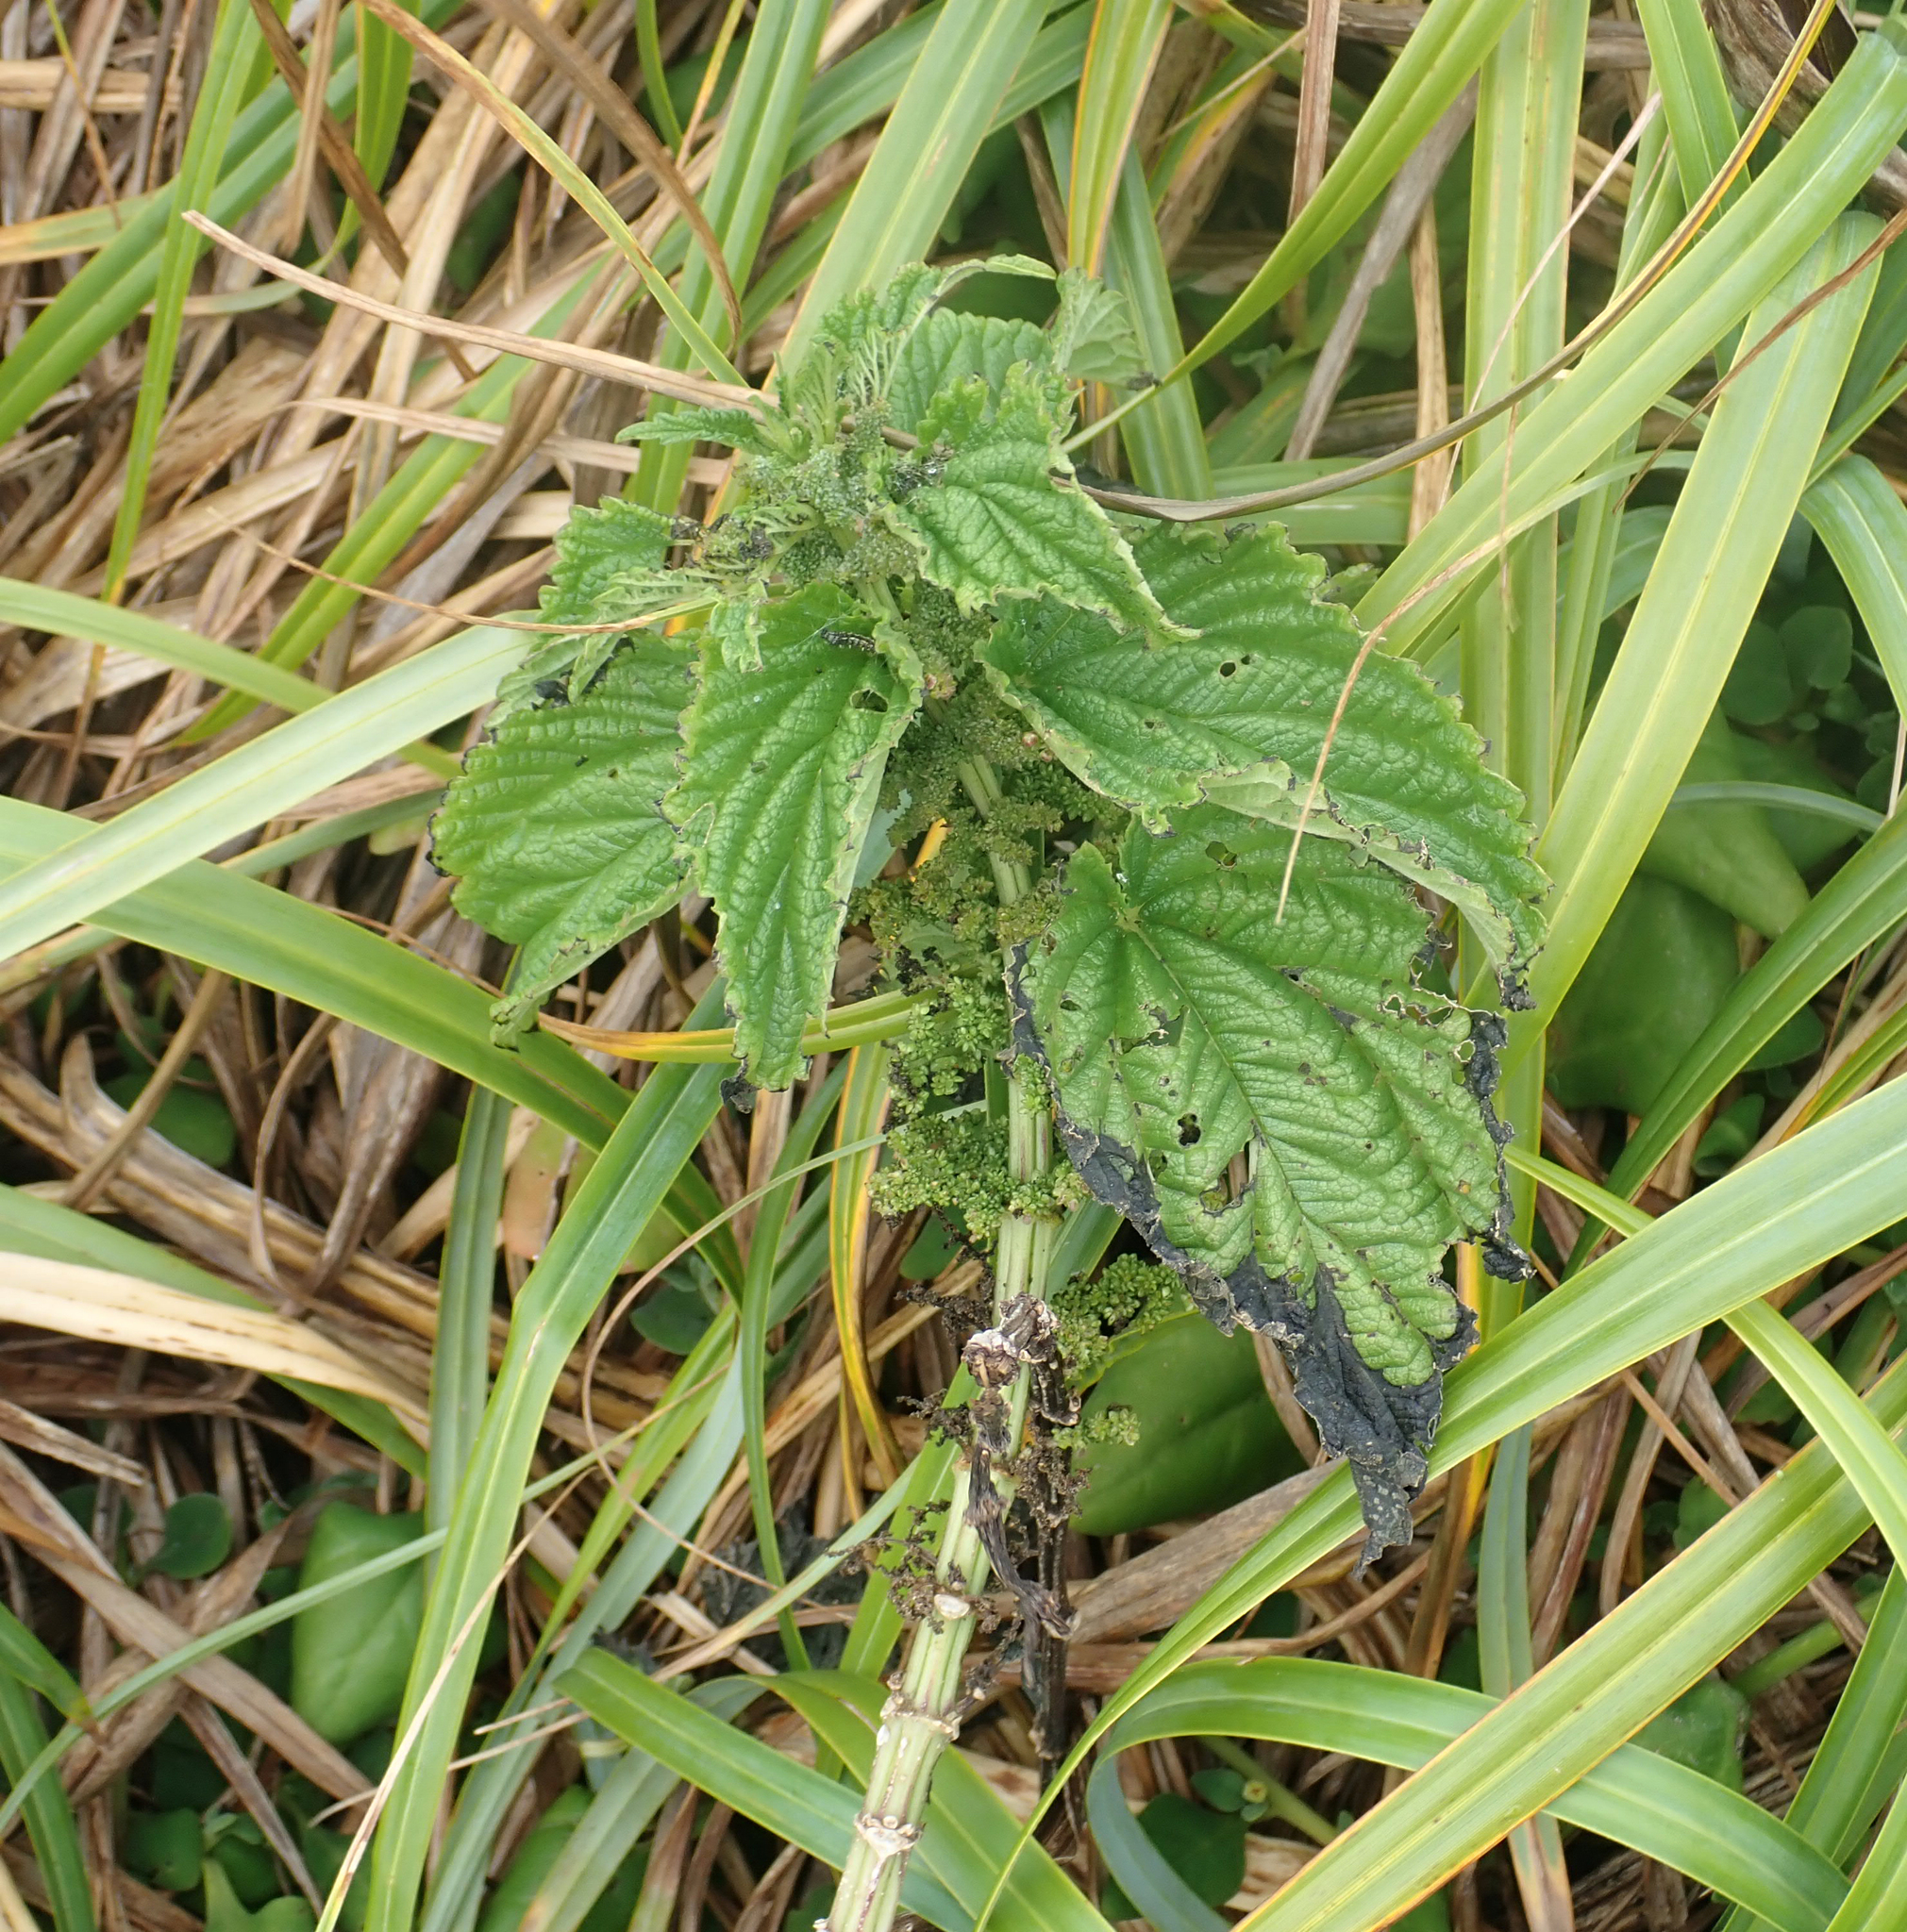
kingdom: Plantae
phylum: Tracheophyta
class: Magnoliopsida
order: Rosales
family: Urticaceae
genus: Urtica
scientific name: Urtica australis
